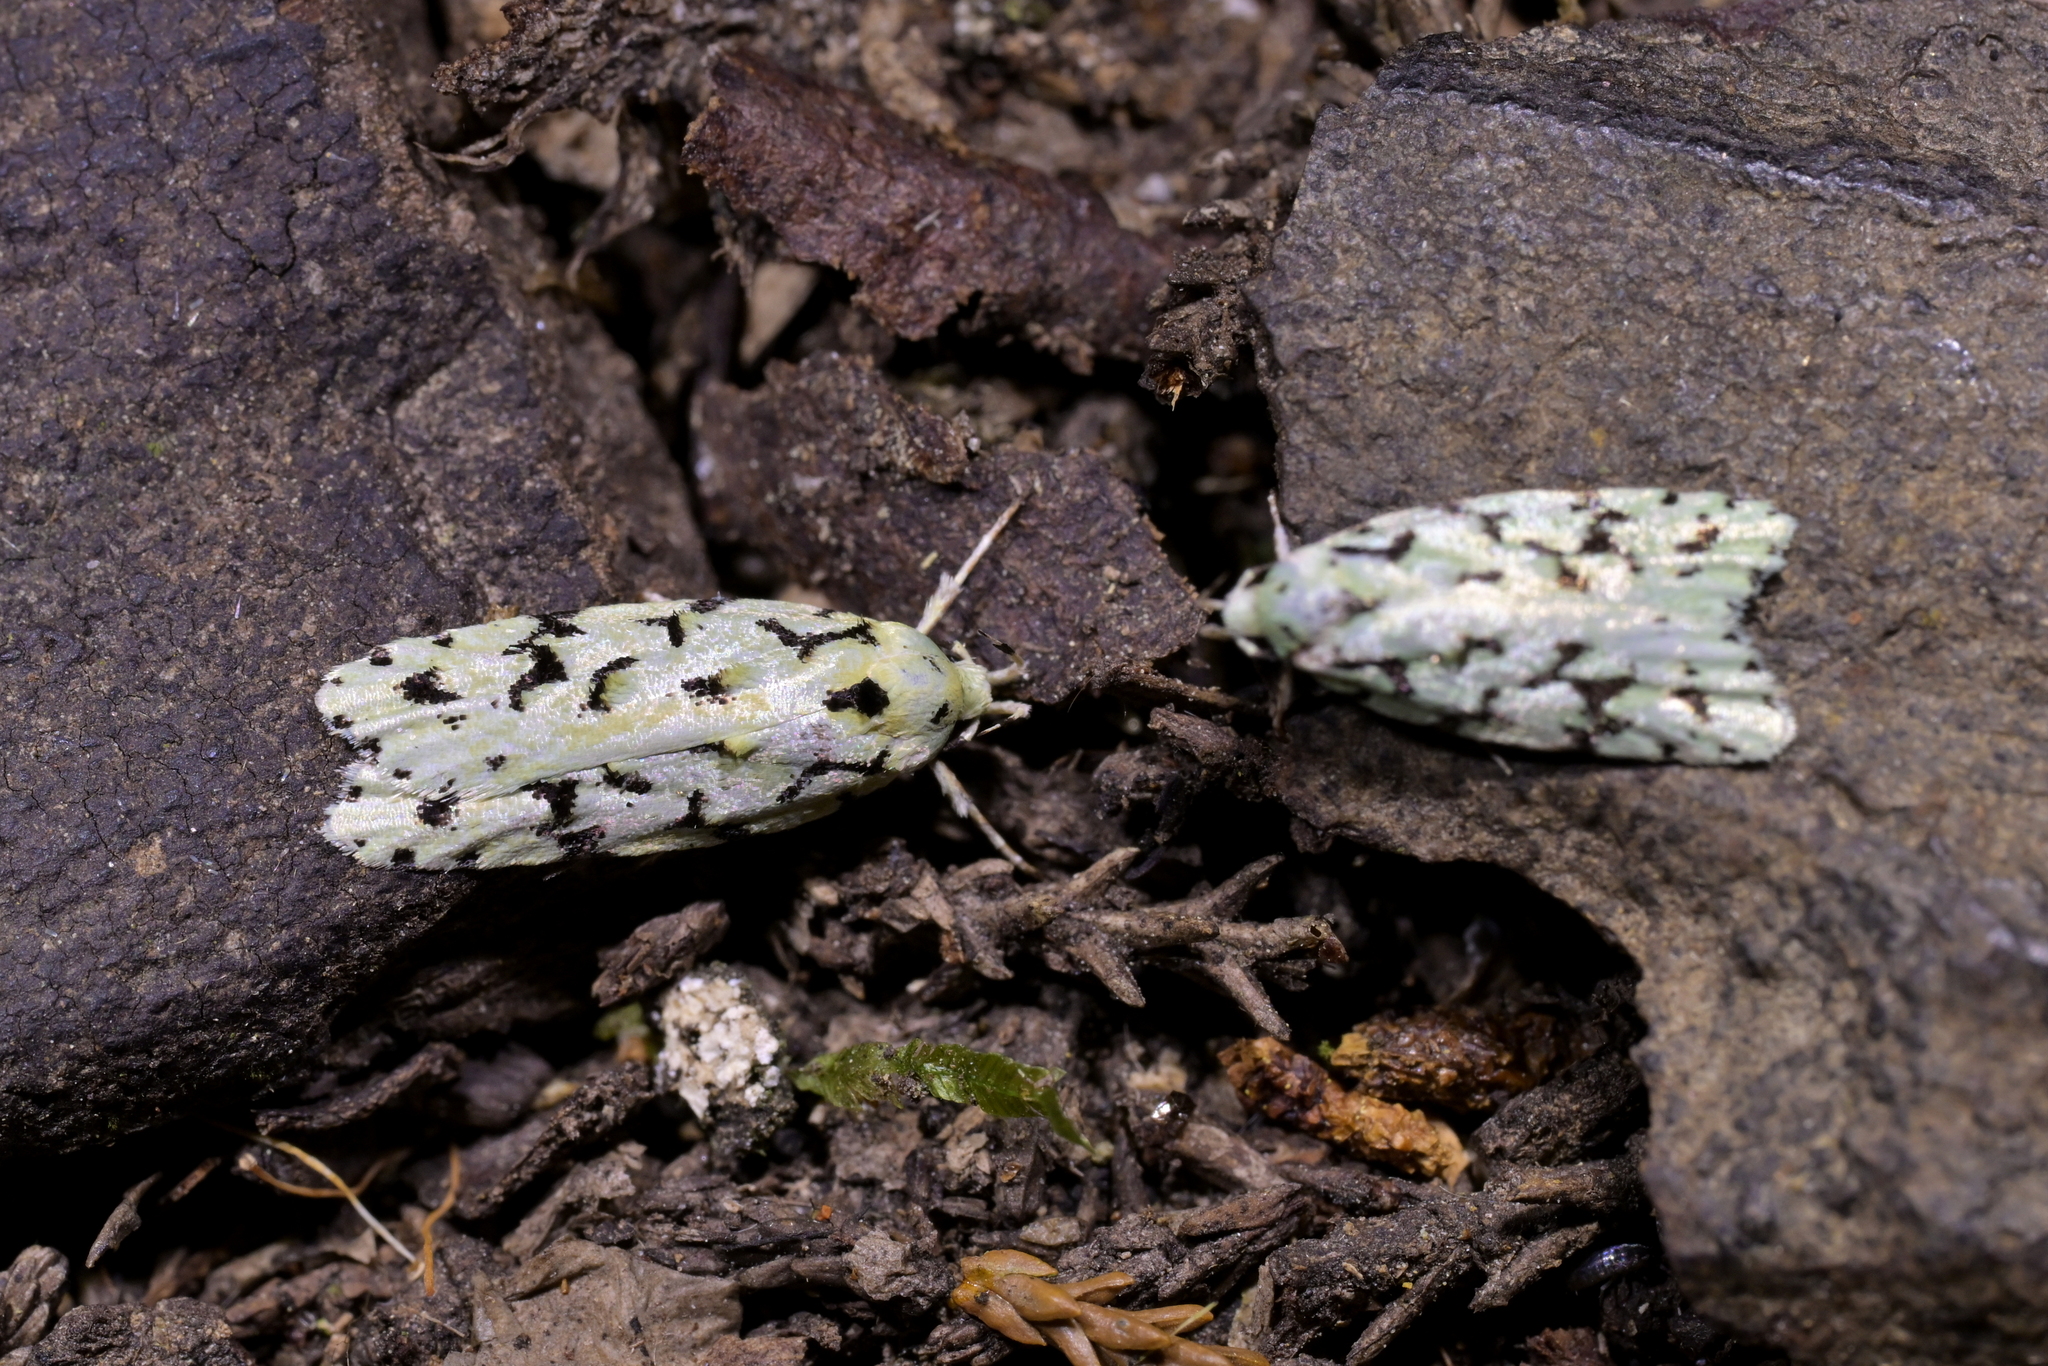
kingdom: Animalia
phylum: Arthropoda
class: Insecta
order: Lepidoptera
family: Oecophoridae
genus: Izatha
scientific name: Izatha peroneanella
